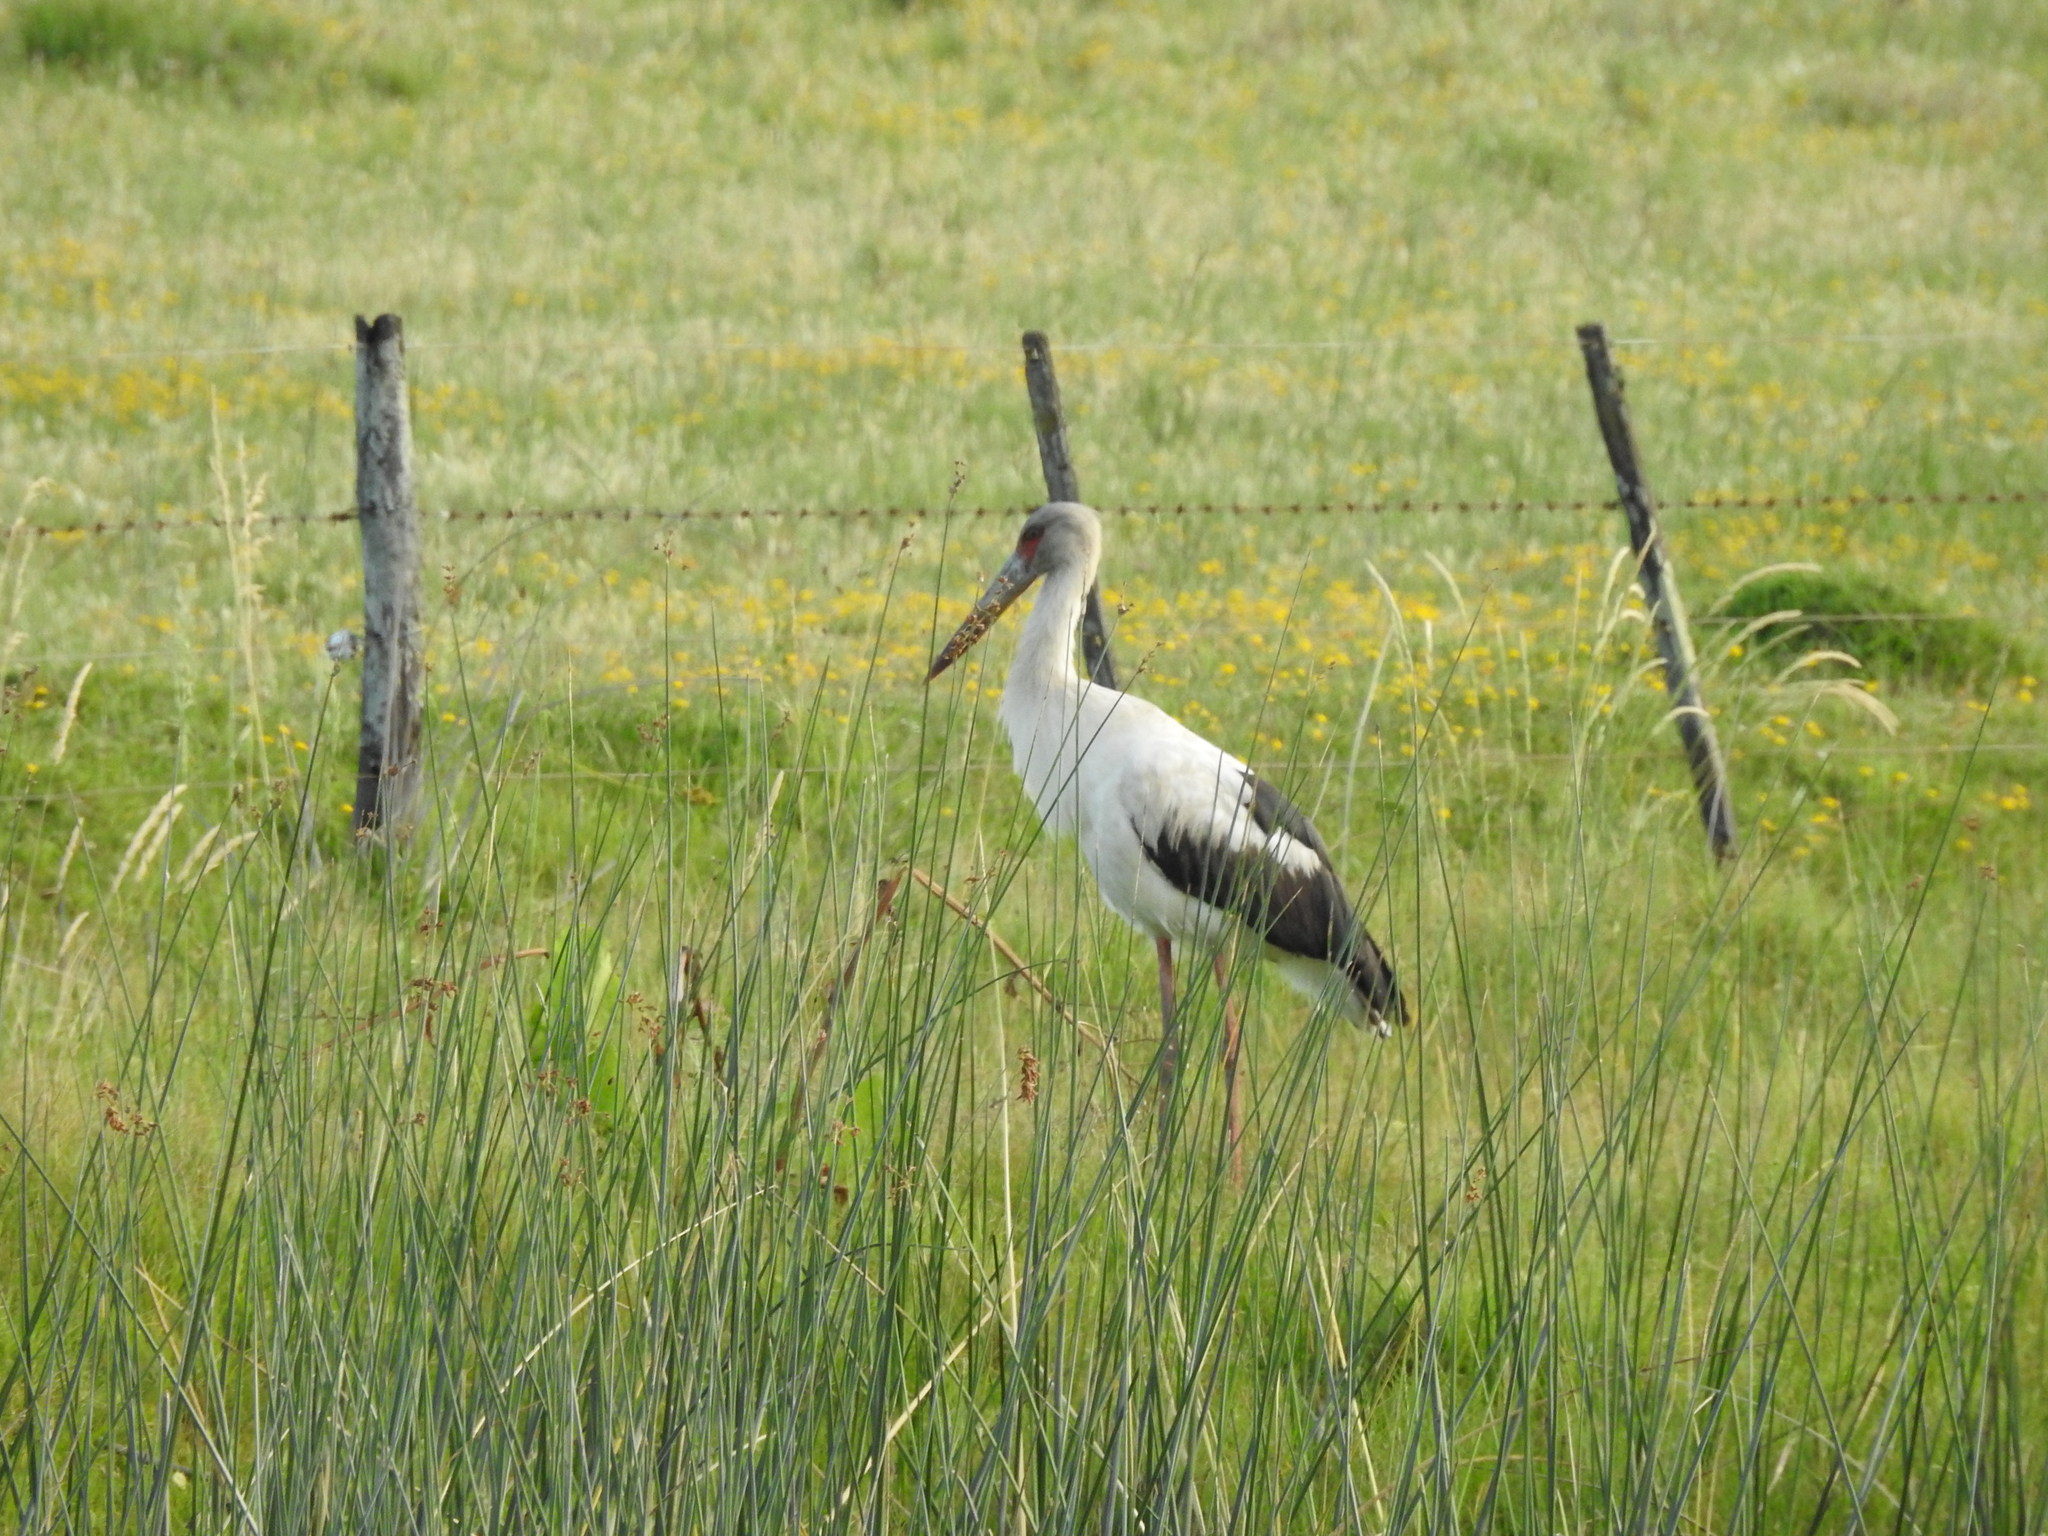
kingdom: Animalia
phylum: Chordata
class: Aves
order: Ciconiiformes
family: Ciconiidae
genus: Ciconia
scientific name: Ciconia maguari
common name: Maguari stork
